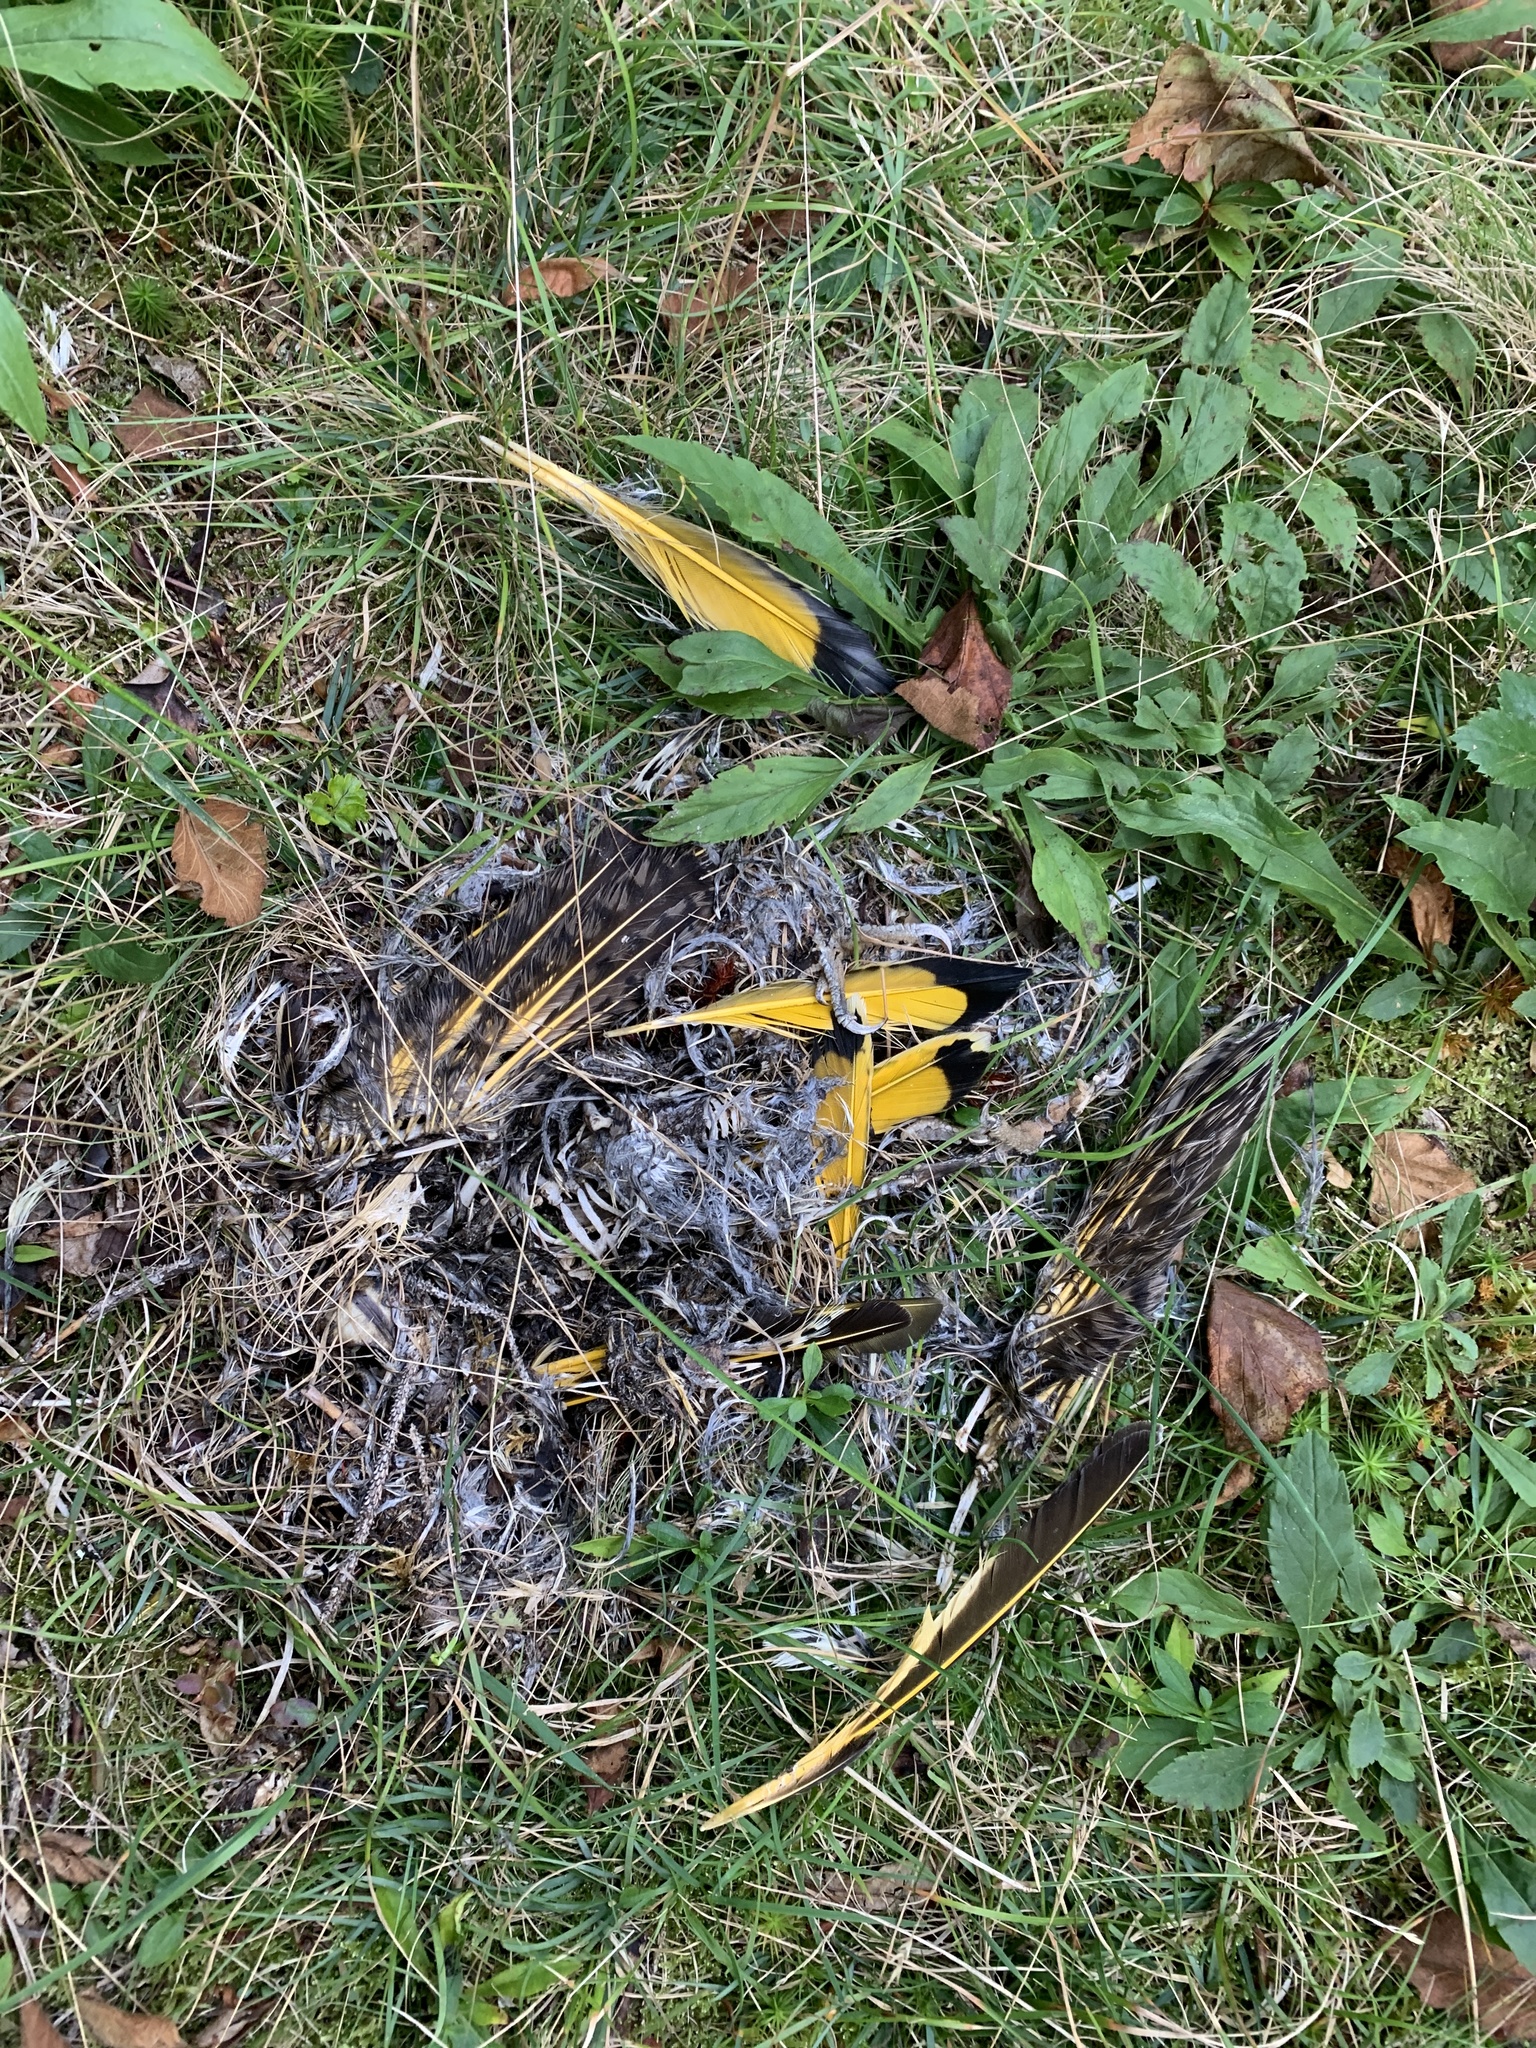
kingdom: Animalia
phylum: Chordata
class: Aves
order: Piciformes
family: Picidae
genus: Colaptes
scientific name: Colaptes auratus
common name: Northern flicker
